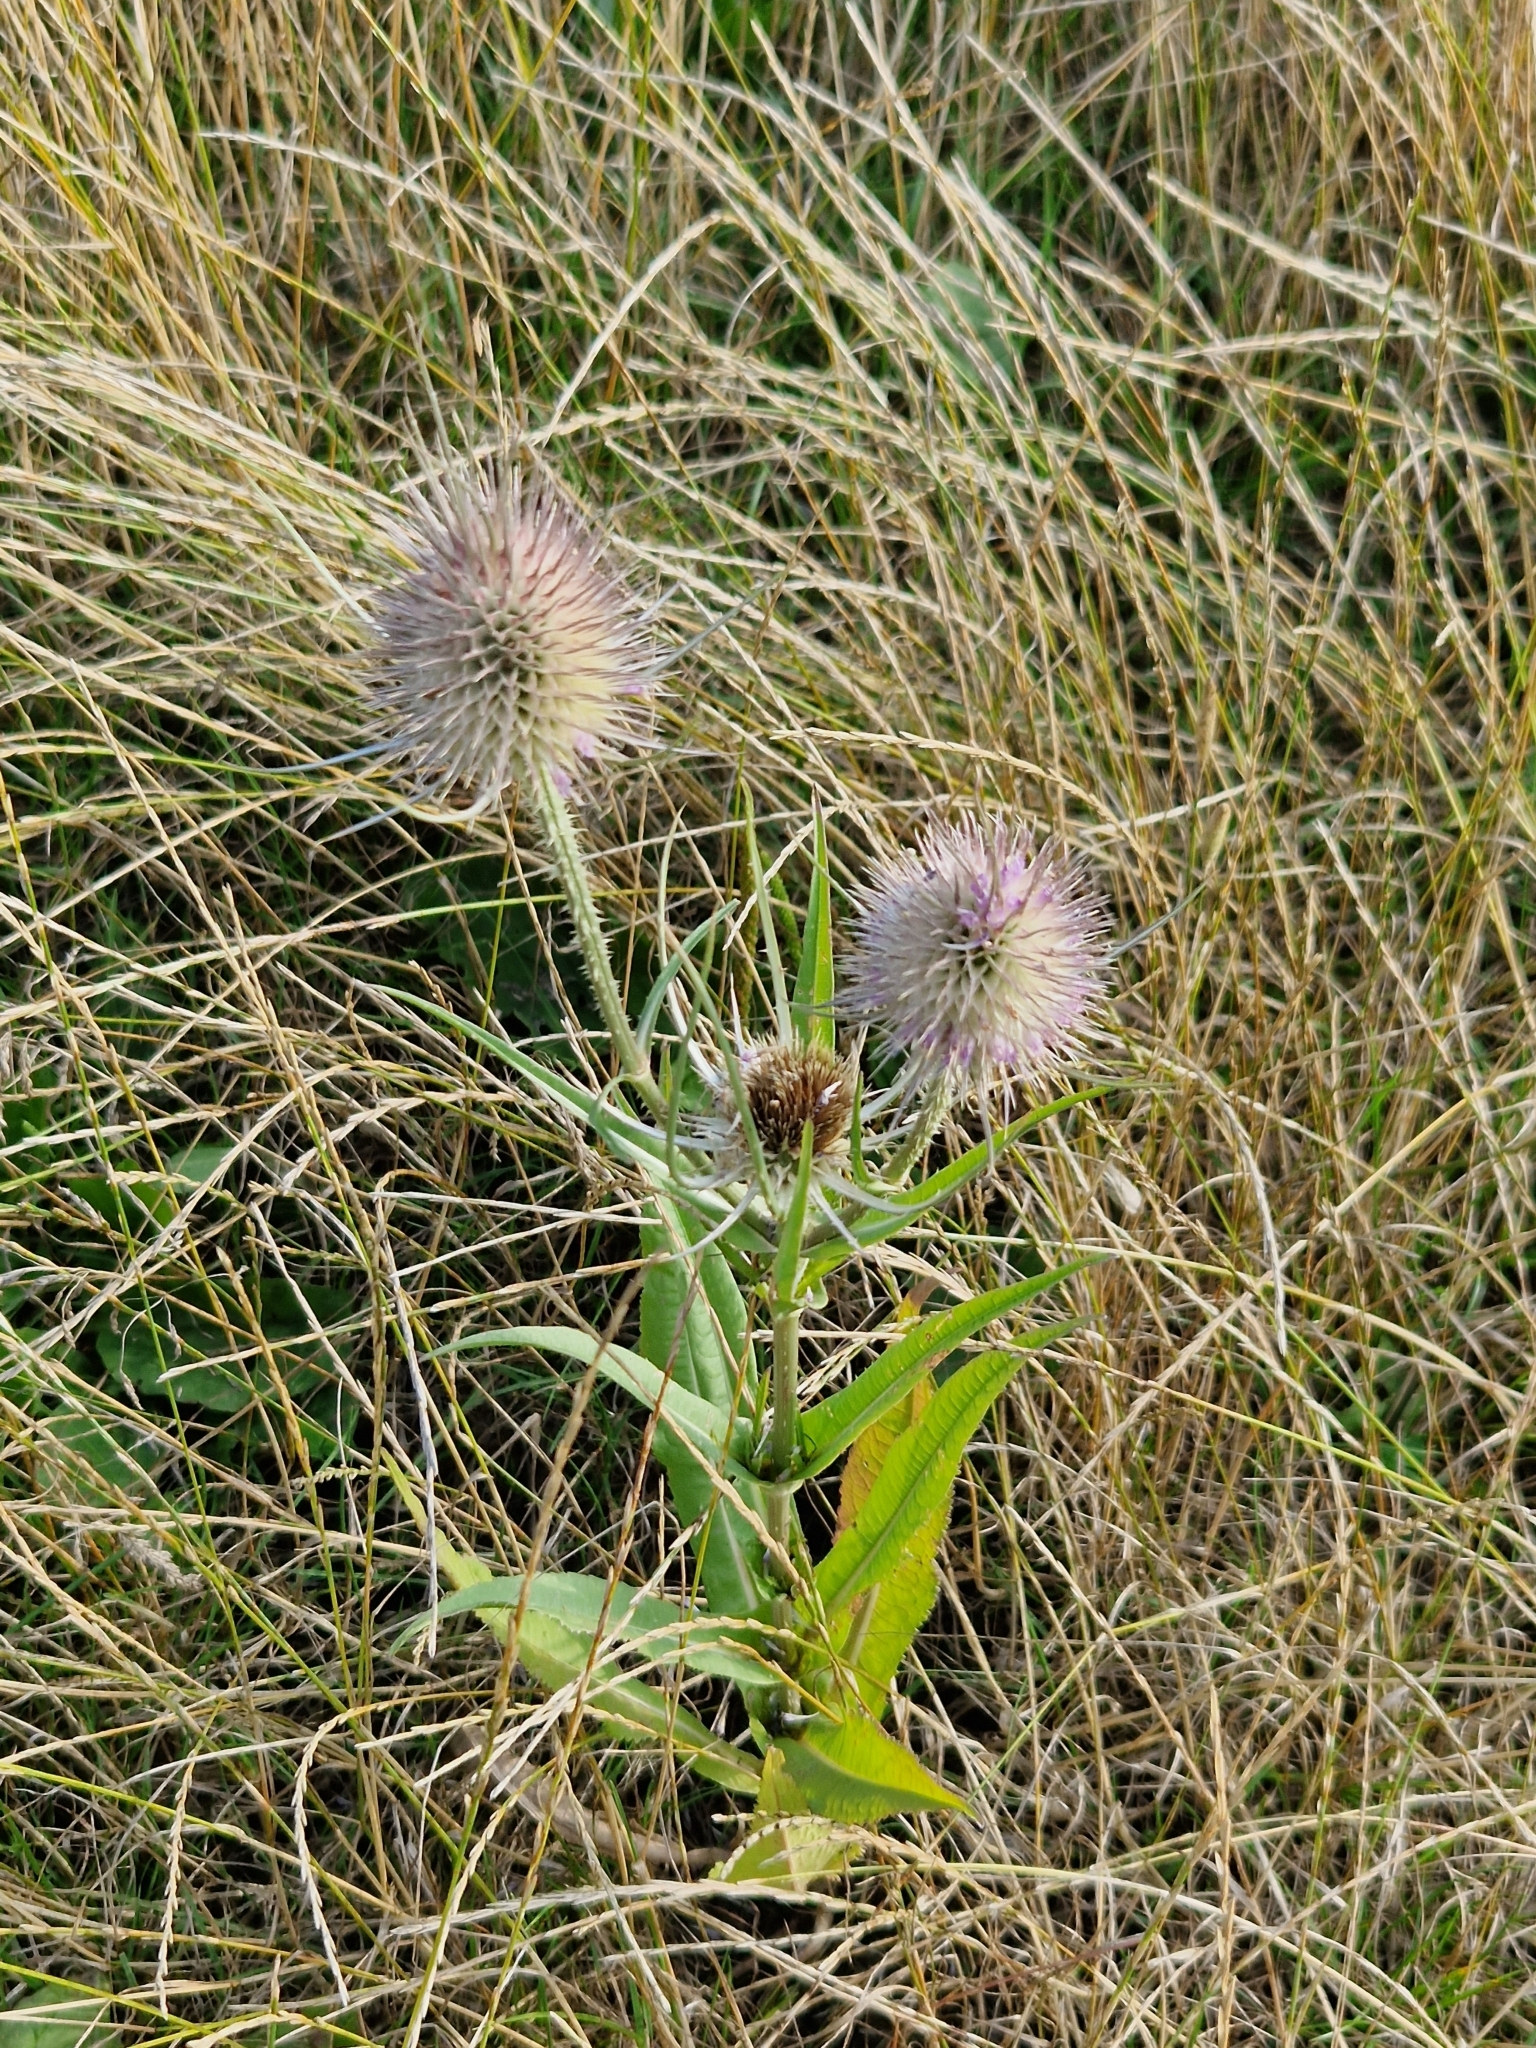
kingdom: Plantae
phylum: Tracheophyta
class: Magnoliopsida
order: Dipsacales
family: Caprifoliaceae
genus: Dipsacus
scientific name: Dipsacus fullonum
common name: Teasel
